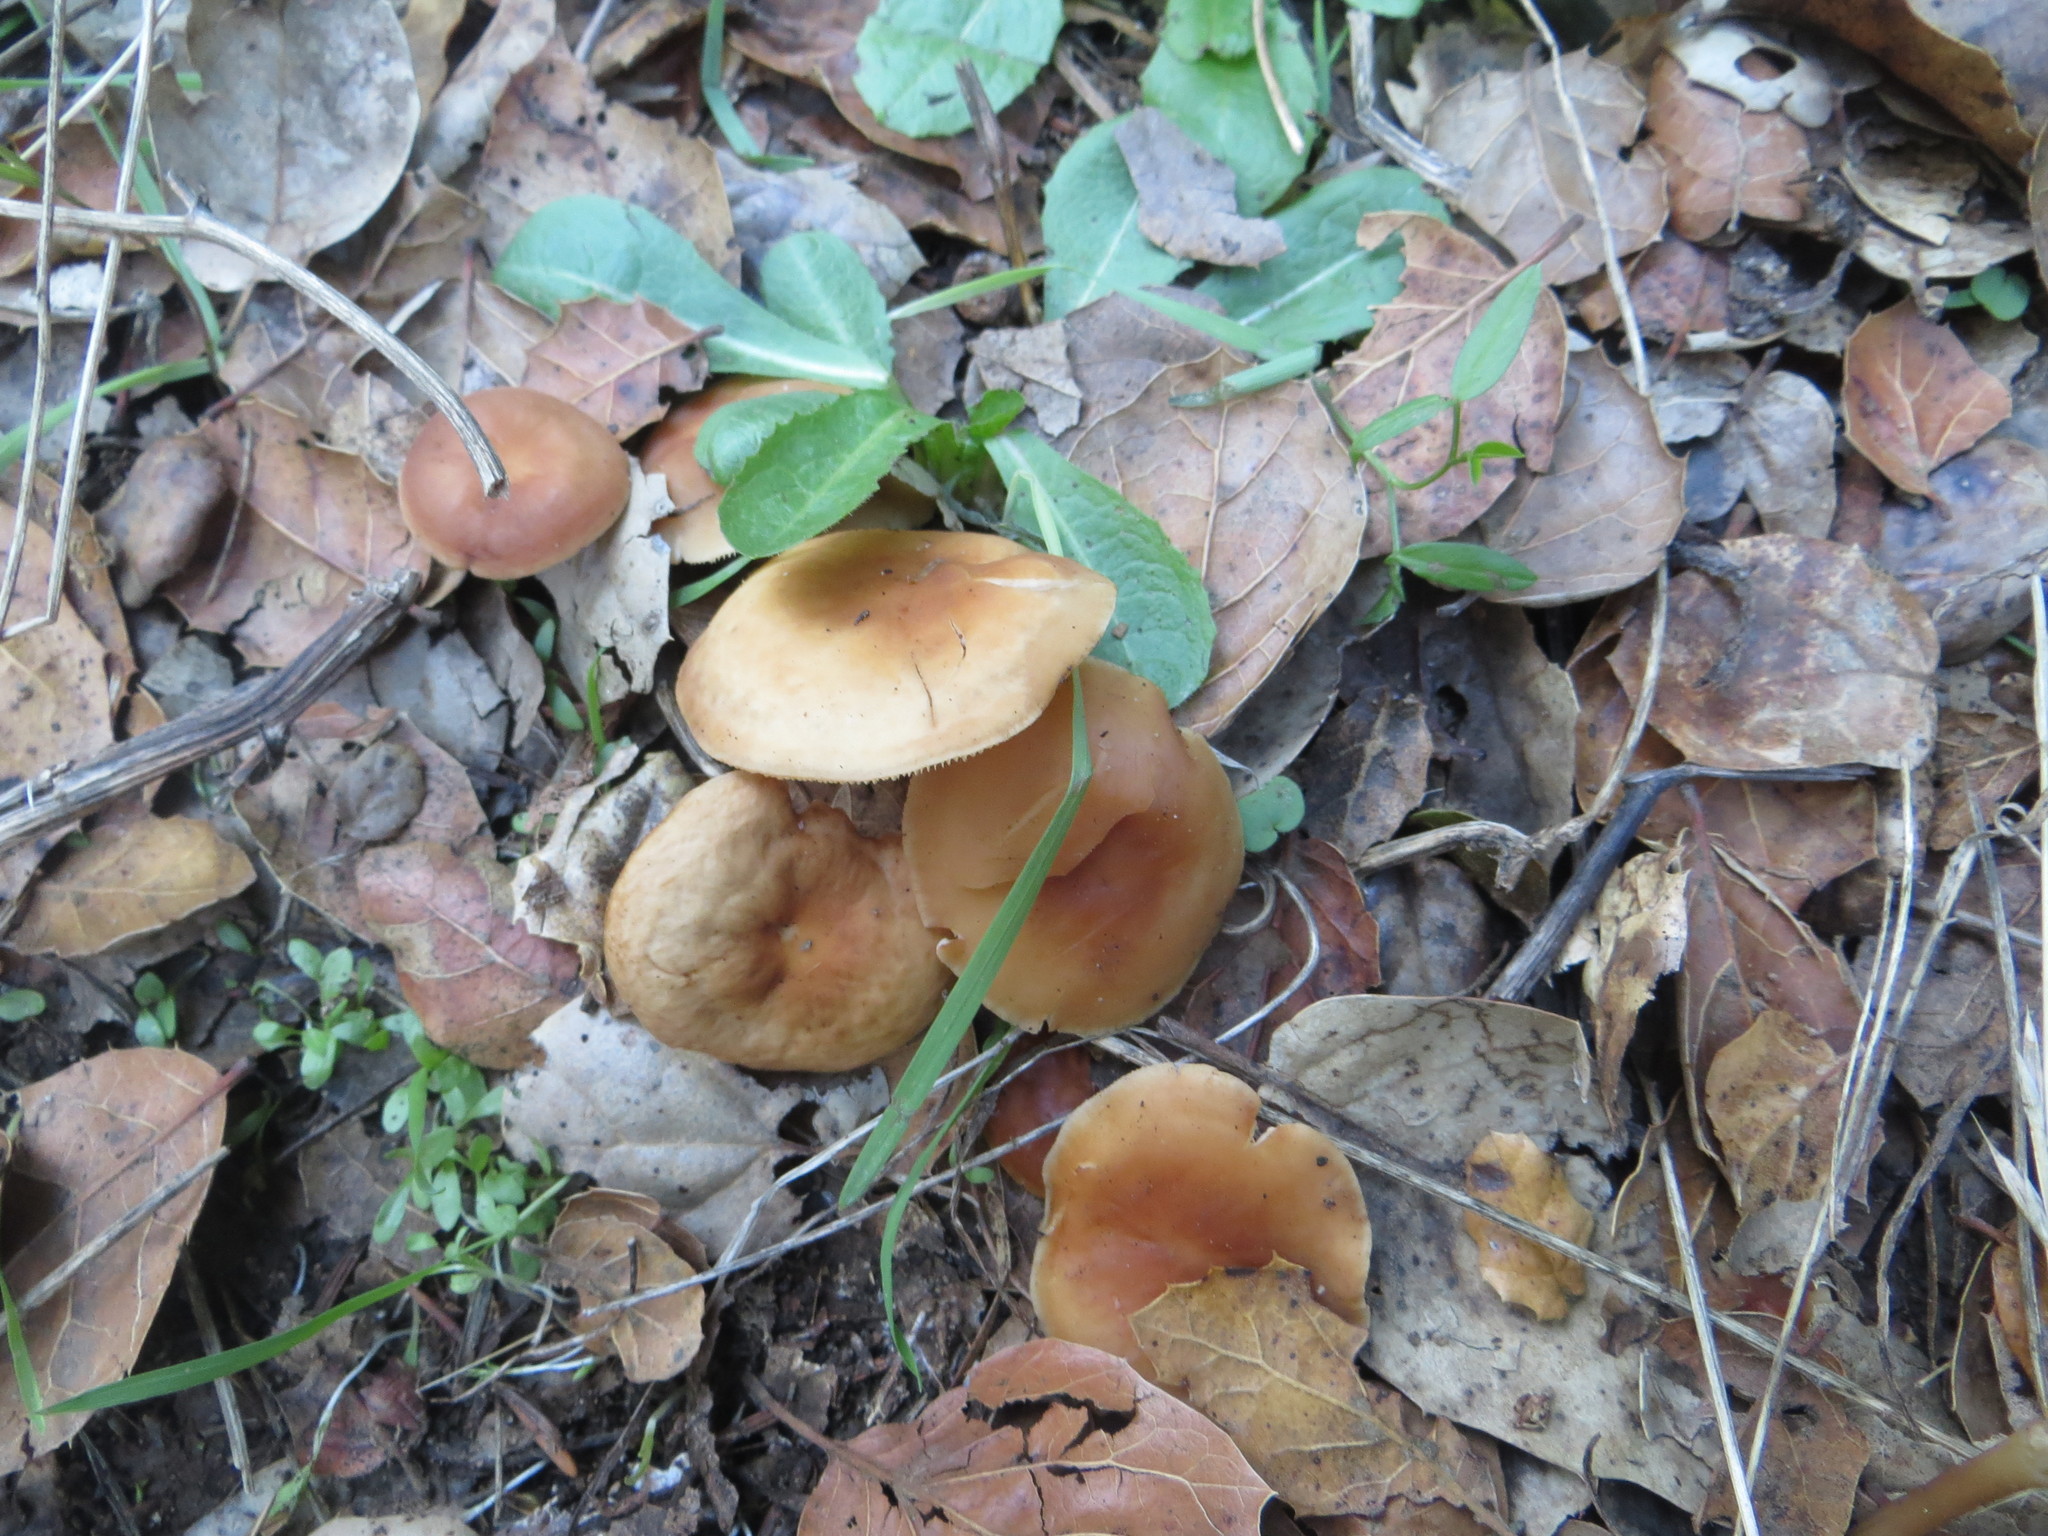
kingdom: Fungi
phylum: Basidiomycota
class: Agaricomycetes
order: Agaricales
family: Omphalotaceae
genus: Gymnopus
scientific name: Gymnopus dryophilus
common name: Penny top
